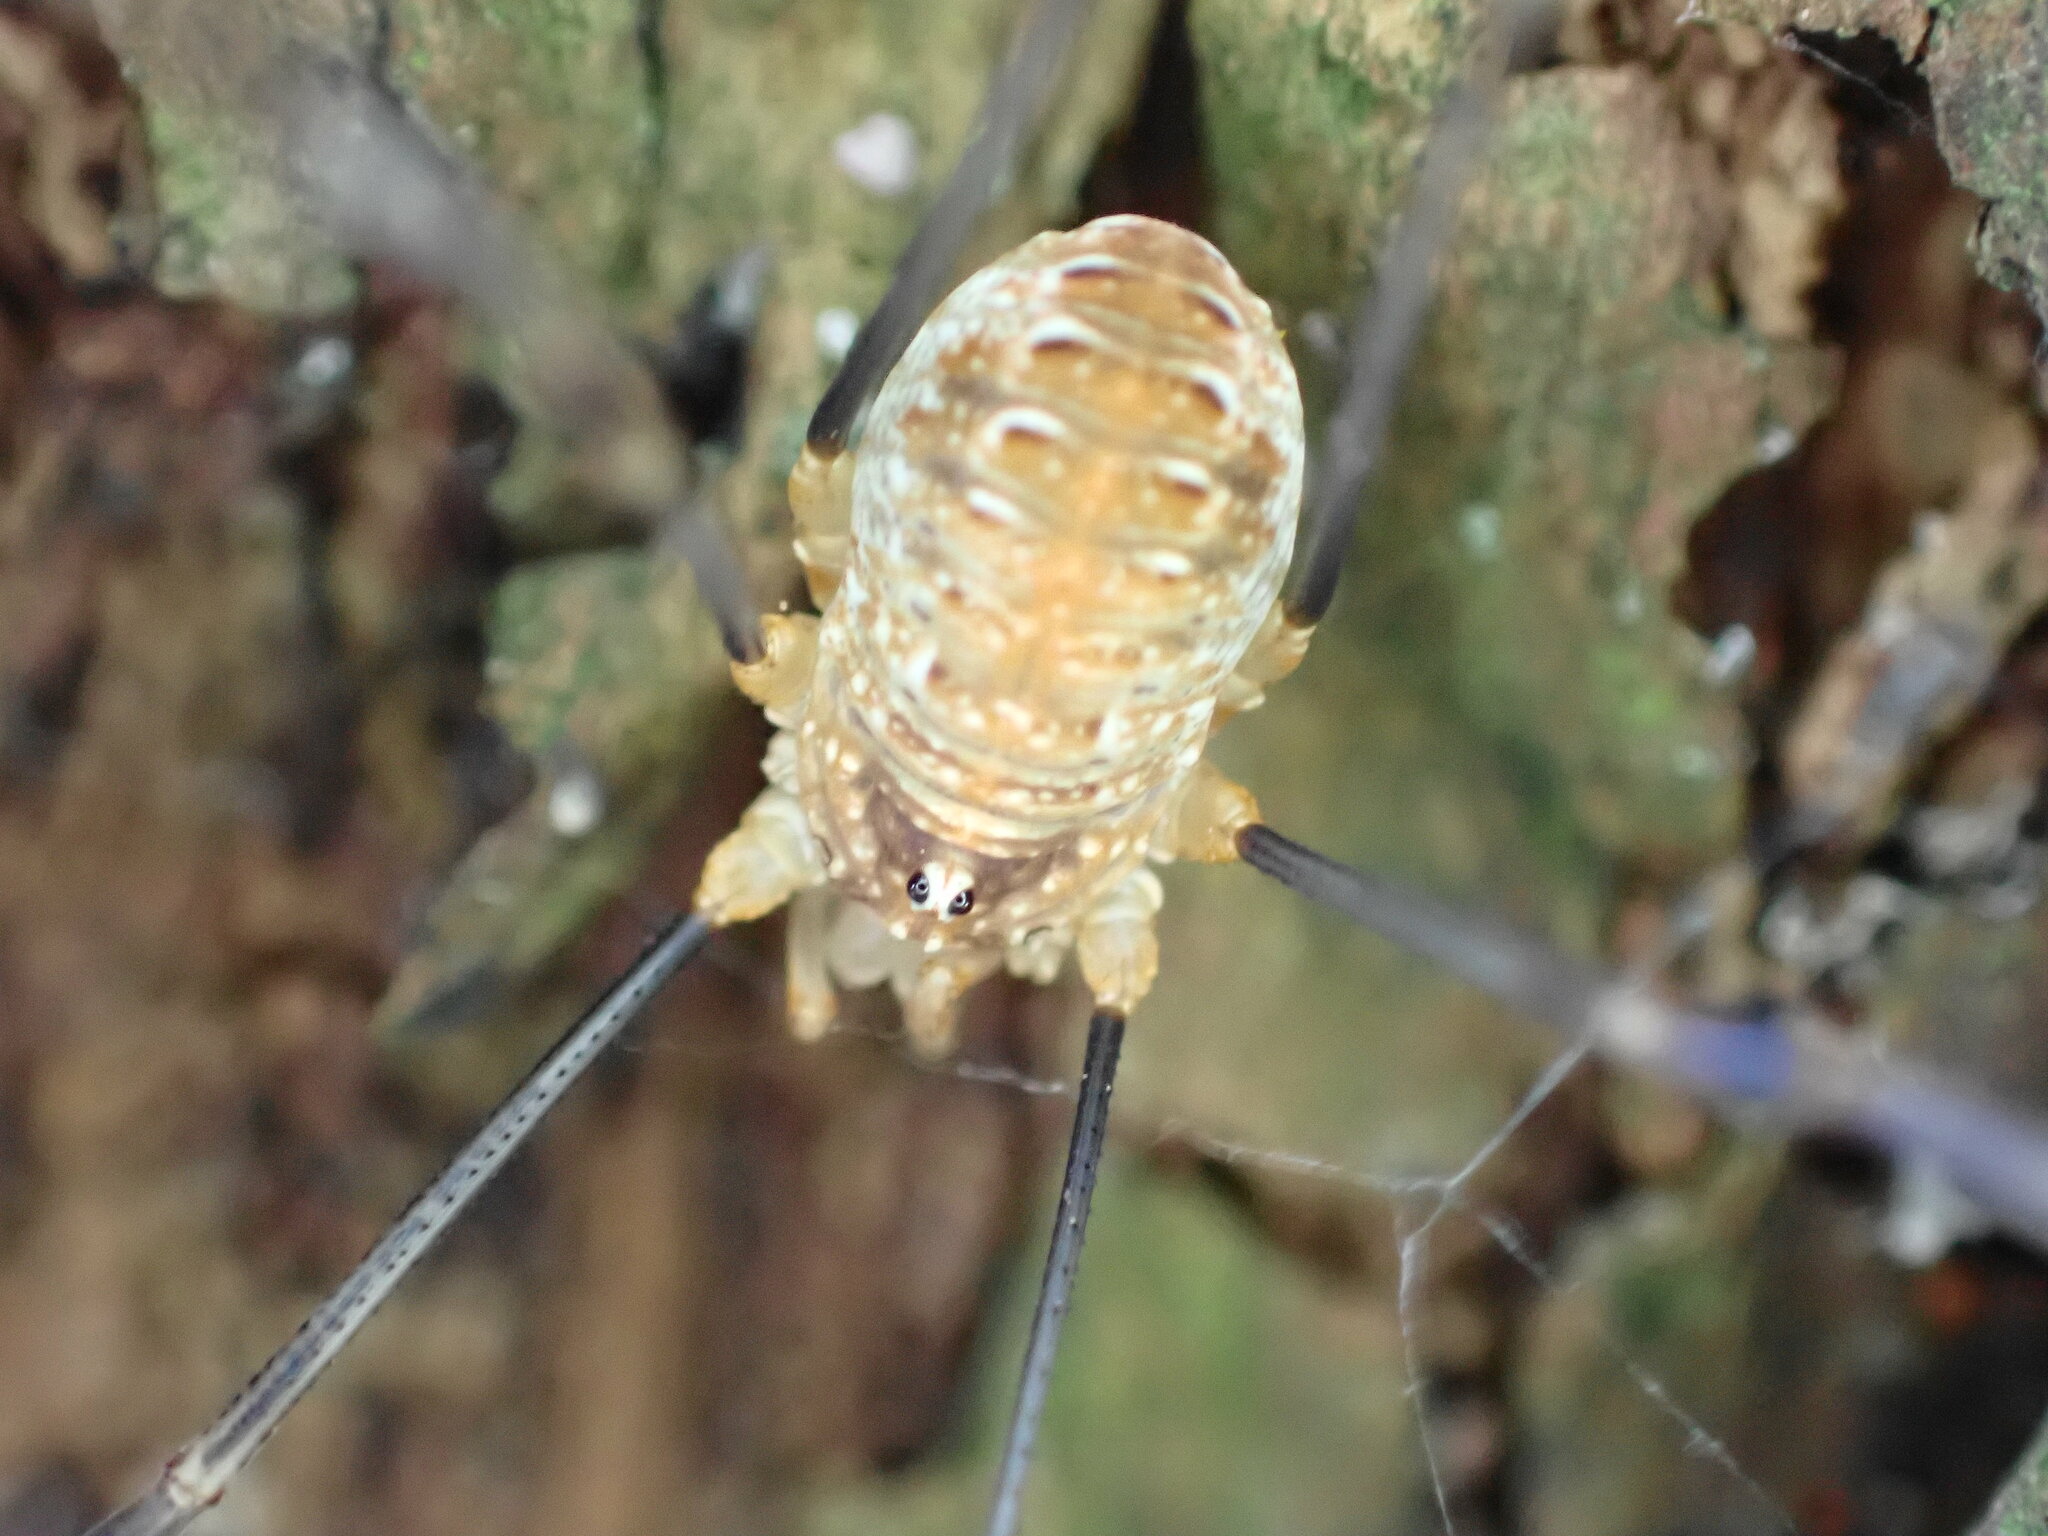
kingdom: Animalia
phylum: Arthropoda
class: Arachnida
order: Opiliones
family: Phalangiidae
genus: Opilio
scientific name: Opilio canestrinii
